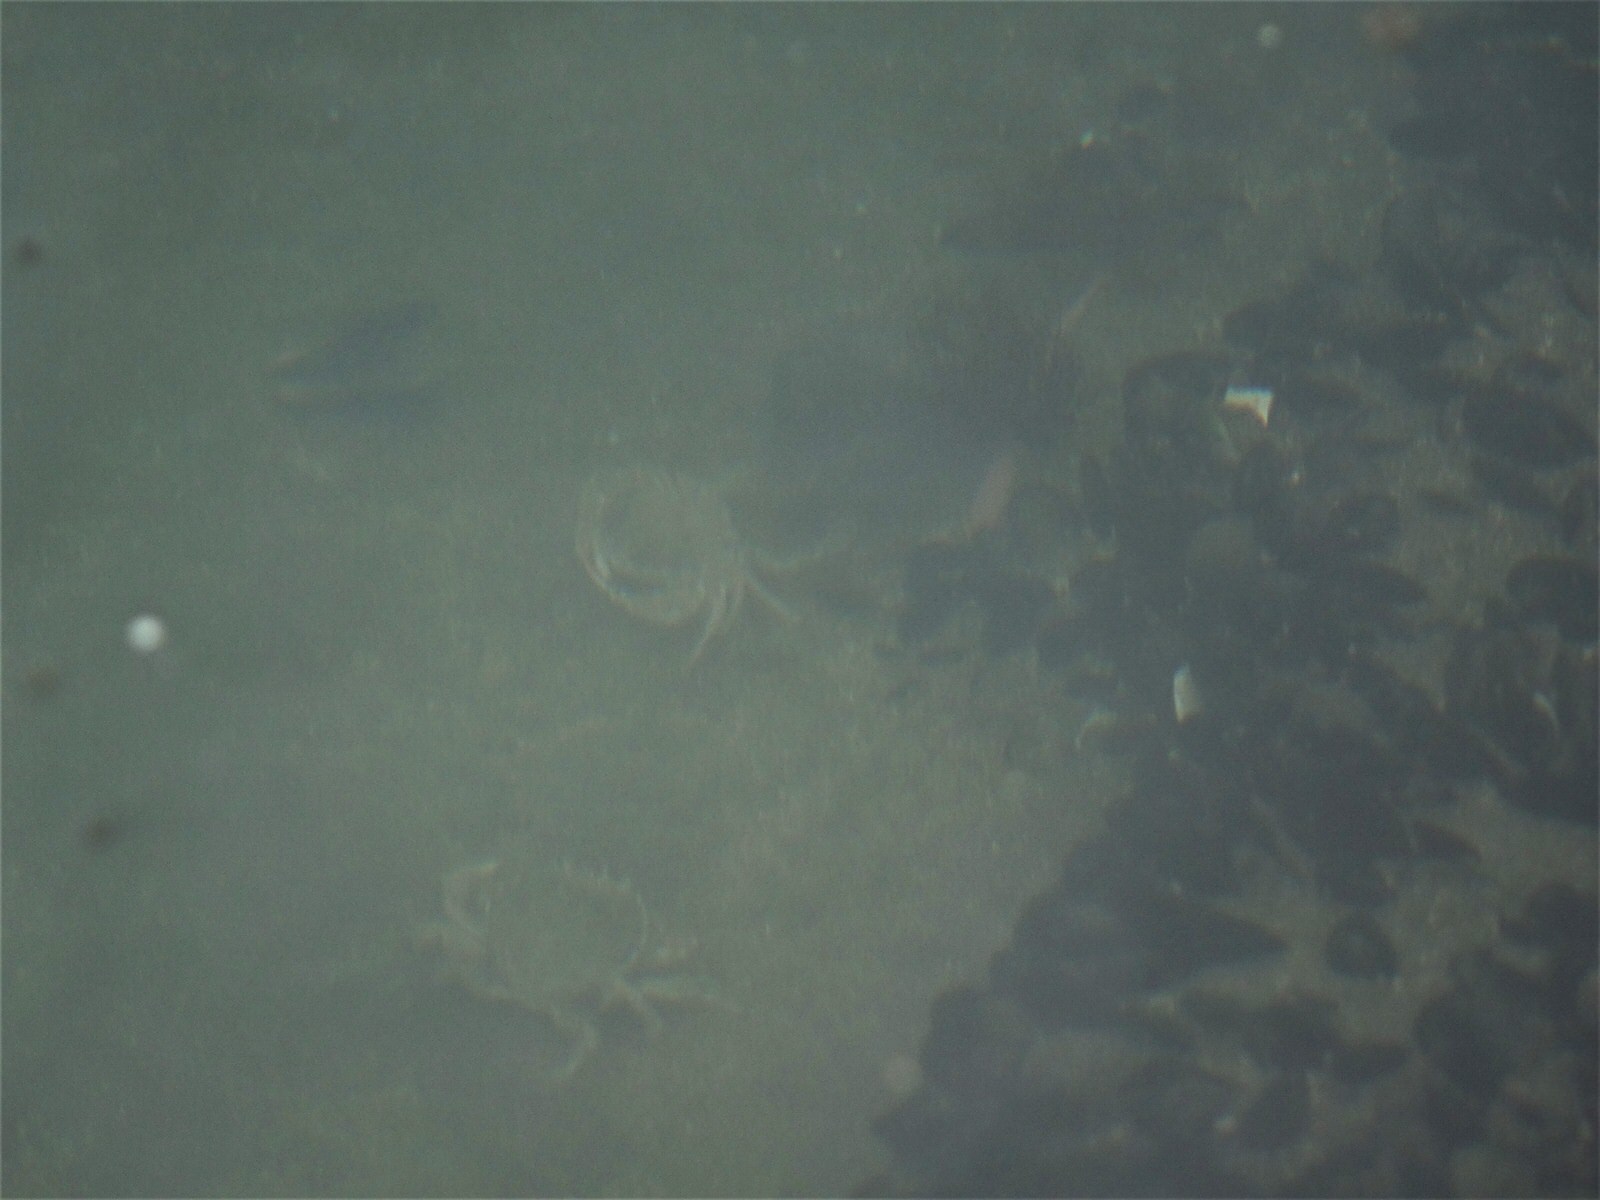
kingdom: Animalia
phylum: Arthropoda
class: Malacostraca
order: Decapoda
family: Ovalipidae
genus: Ovalipes
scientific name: Ovalipes catharus
